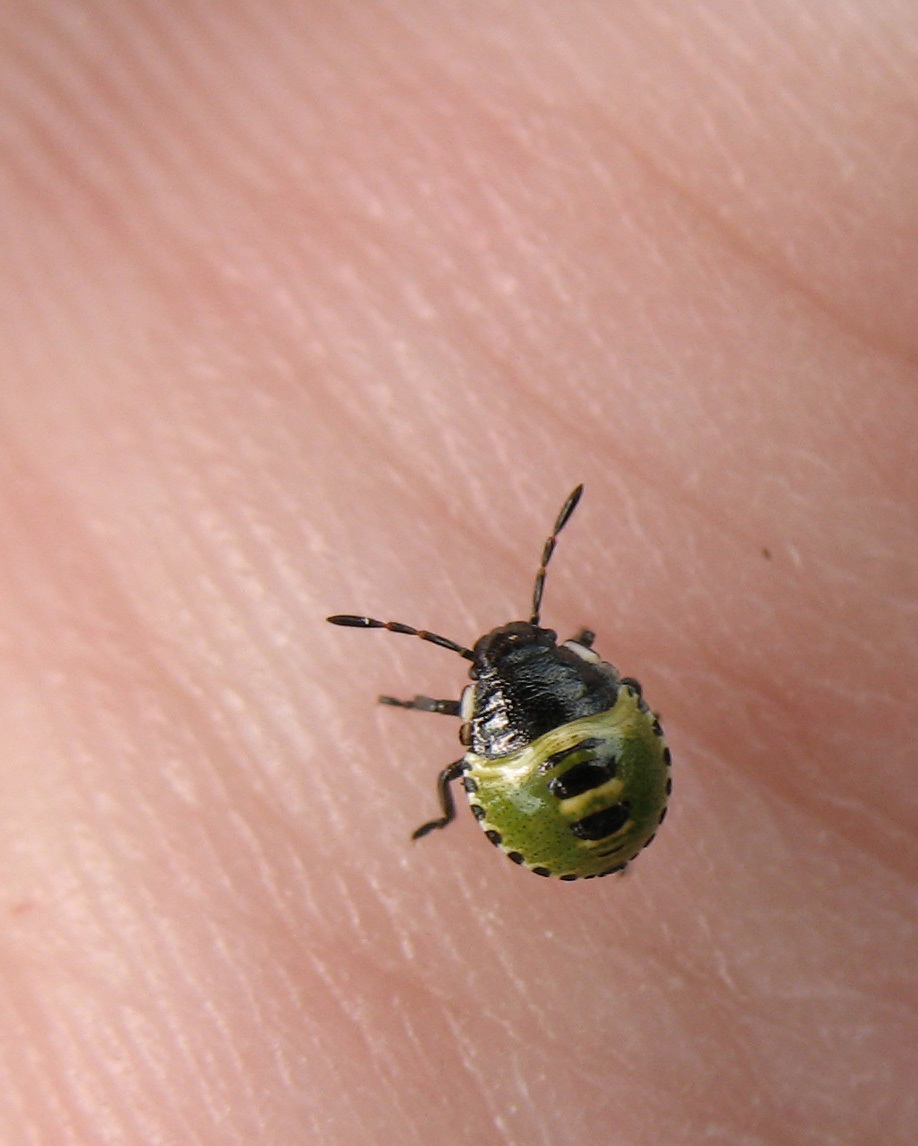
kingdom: Animalia
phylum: Arthropoda
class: Insecta
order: Hemiptera
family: Pentatomidae
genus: Palomena
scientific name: Palomena prasina
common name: Green shieldbug
